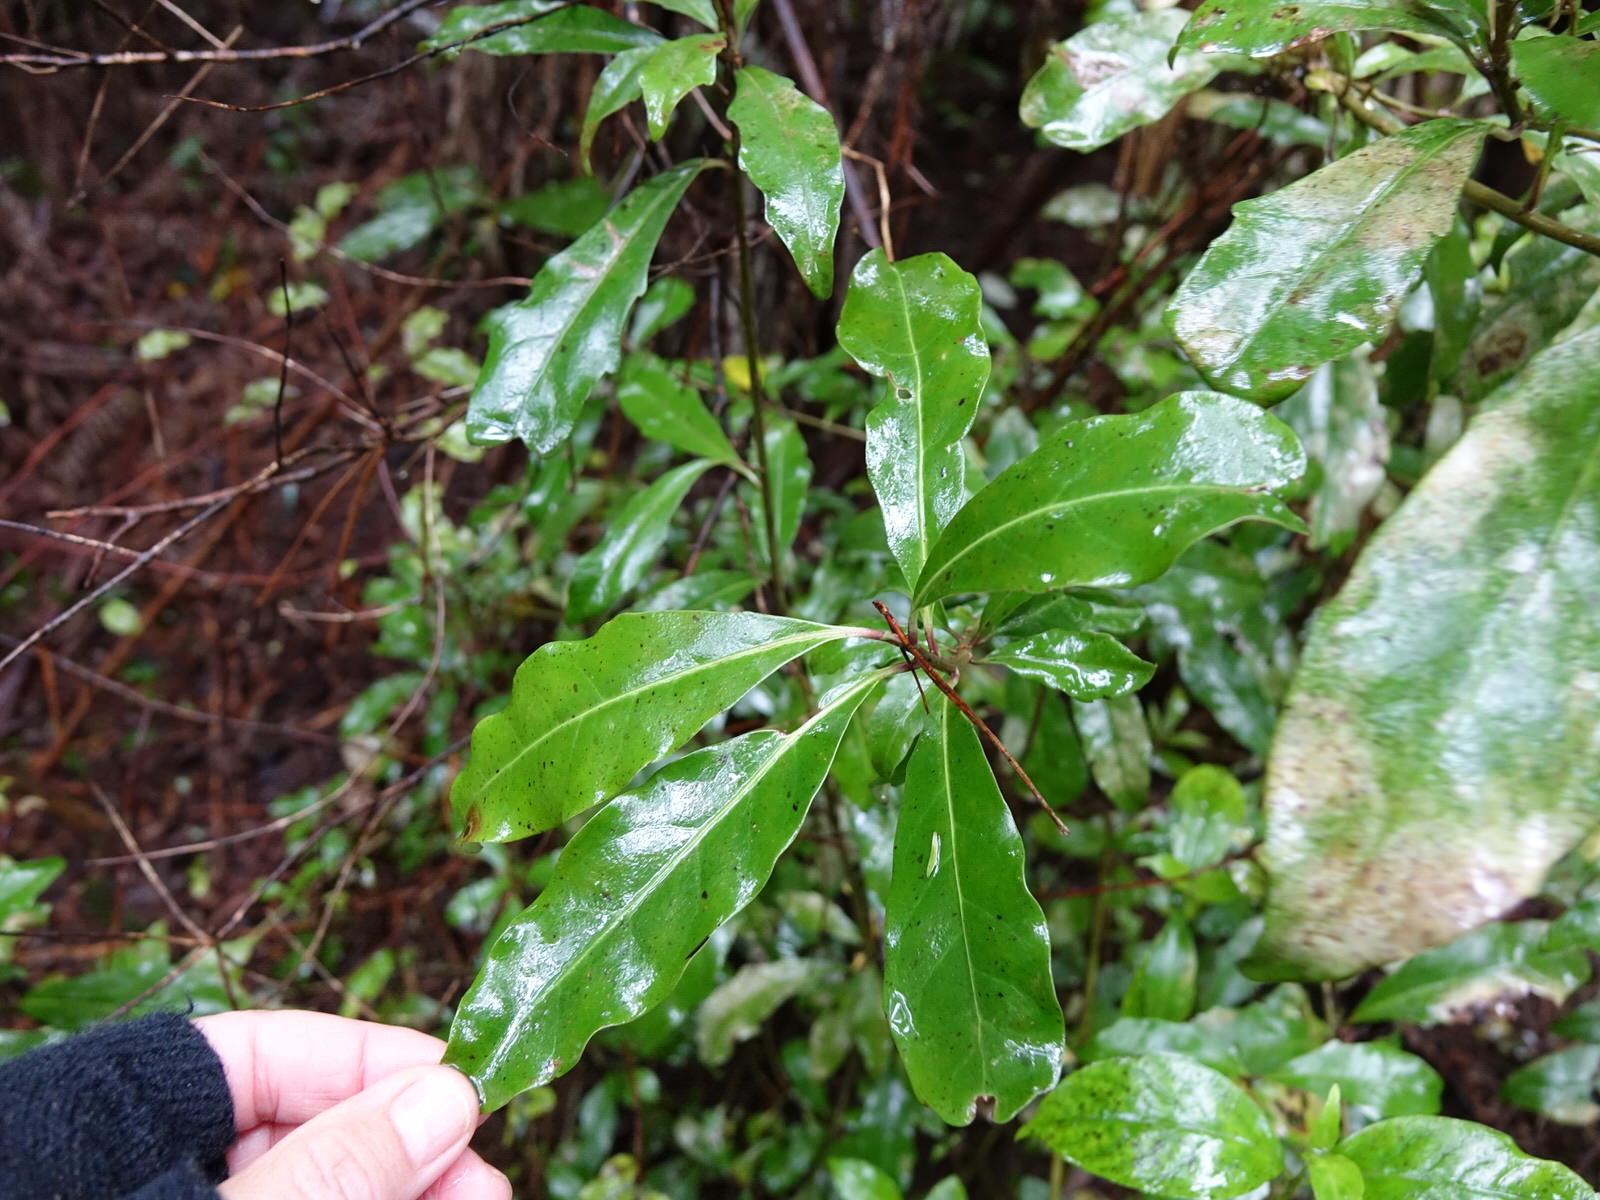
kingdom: Plantae
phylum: Tracheophyta
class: Magnoliopsida
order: Asterales
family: Alseuosmiaceae
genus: Alseuosmia
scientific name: Alseuosmia macrophylla
